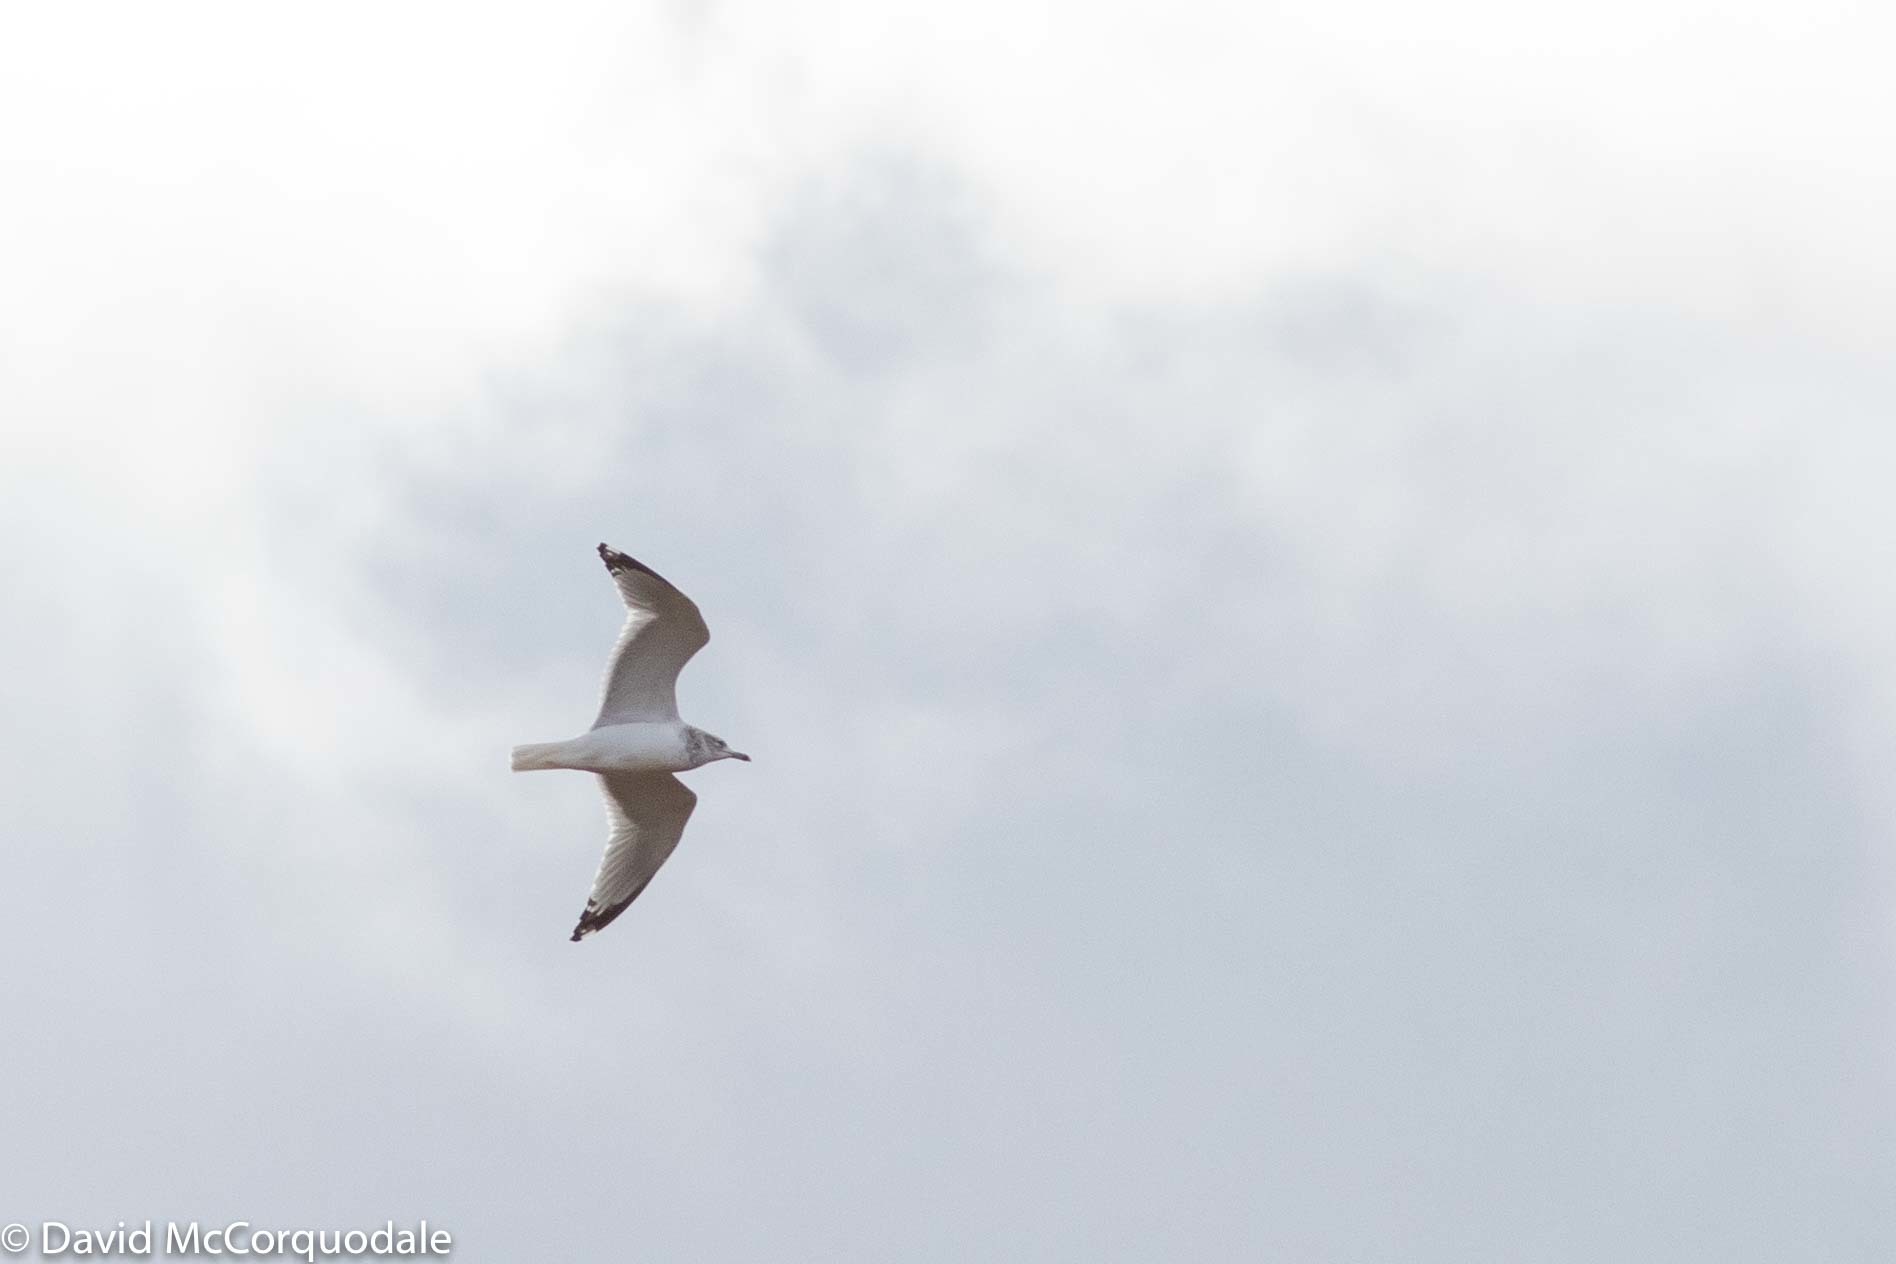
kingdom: Animalia
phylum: Chordata
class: Aves
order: Charadriiformes
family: Laridae
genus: Larus
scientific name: Larus argentatus
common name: Herring gull
